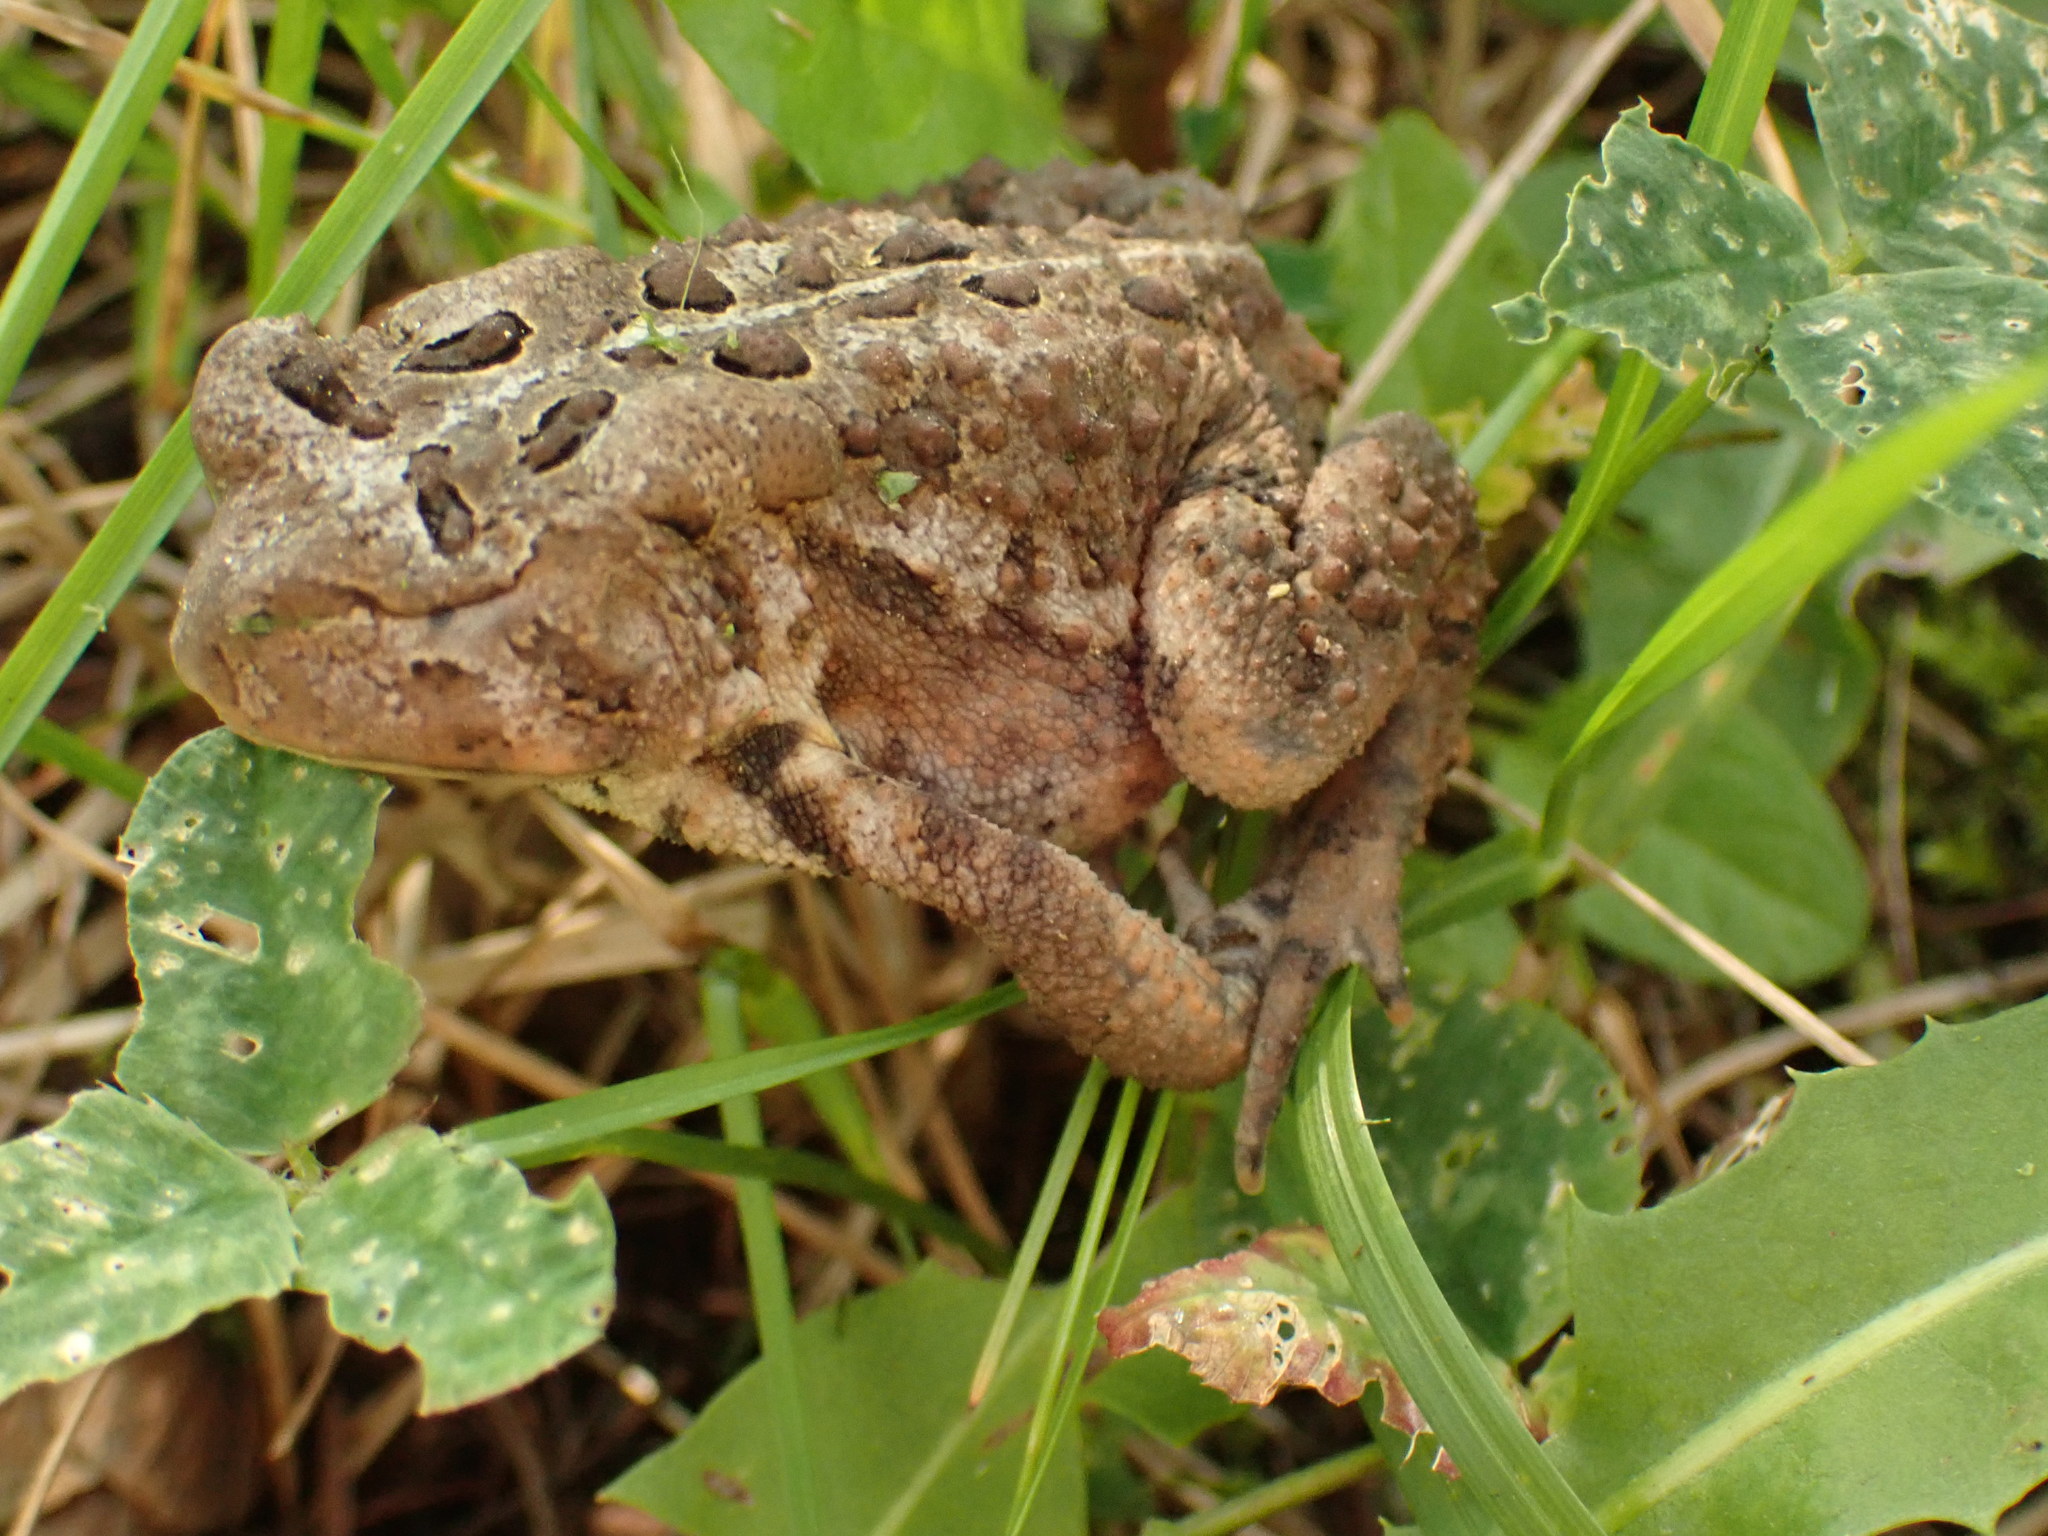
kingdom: Animalia
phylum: Chordata
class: Amphibia
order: Anura
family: Bufonidae
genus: Anaxyrus
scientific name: Anaxyrus americanus
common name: American toad
